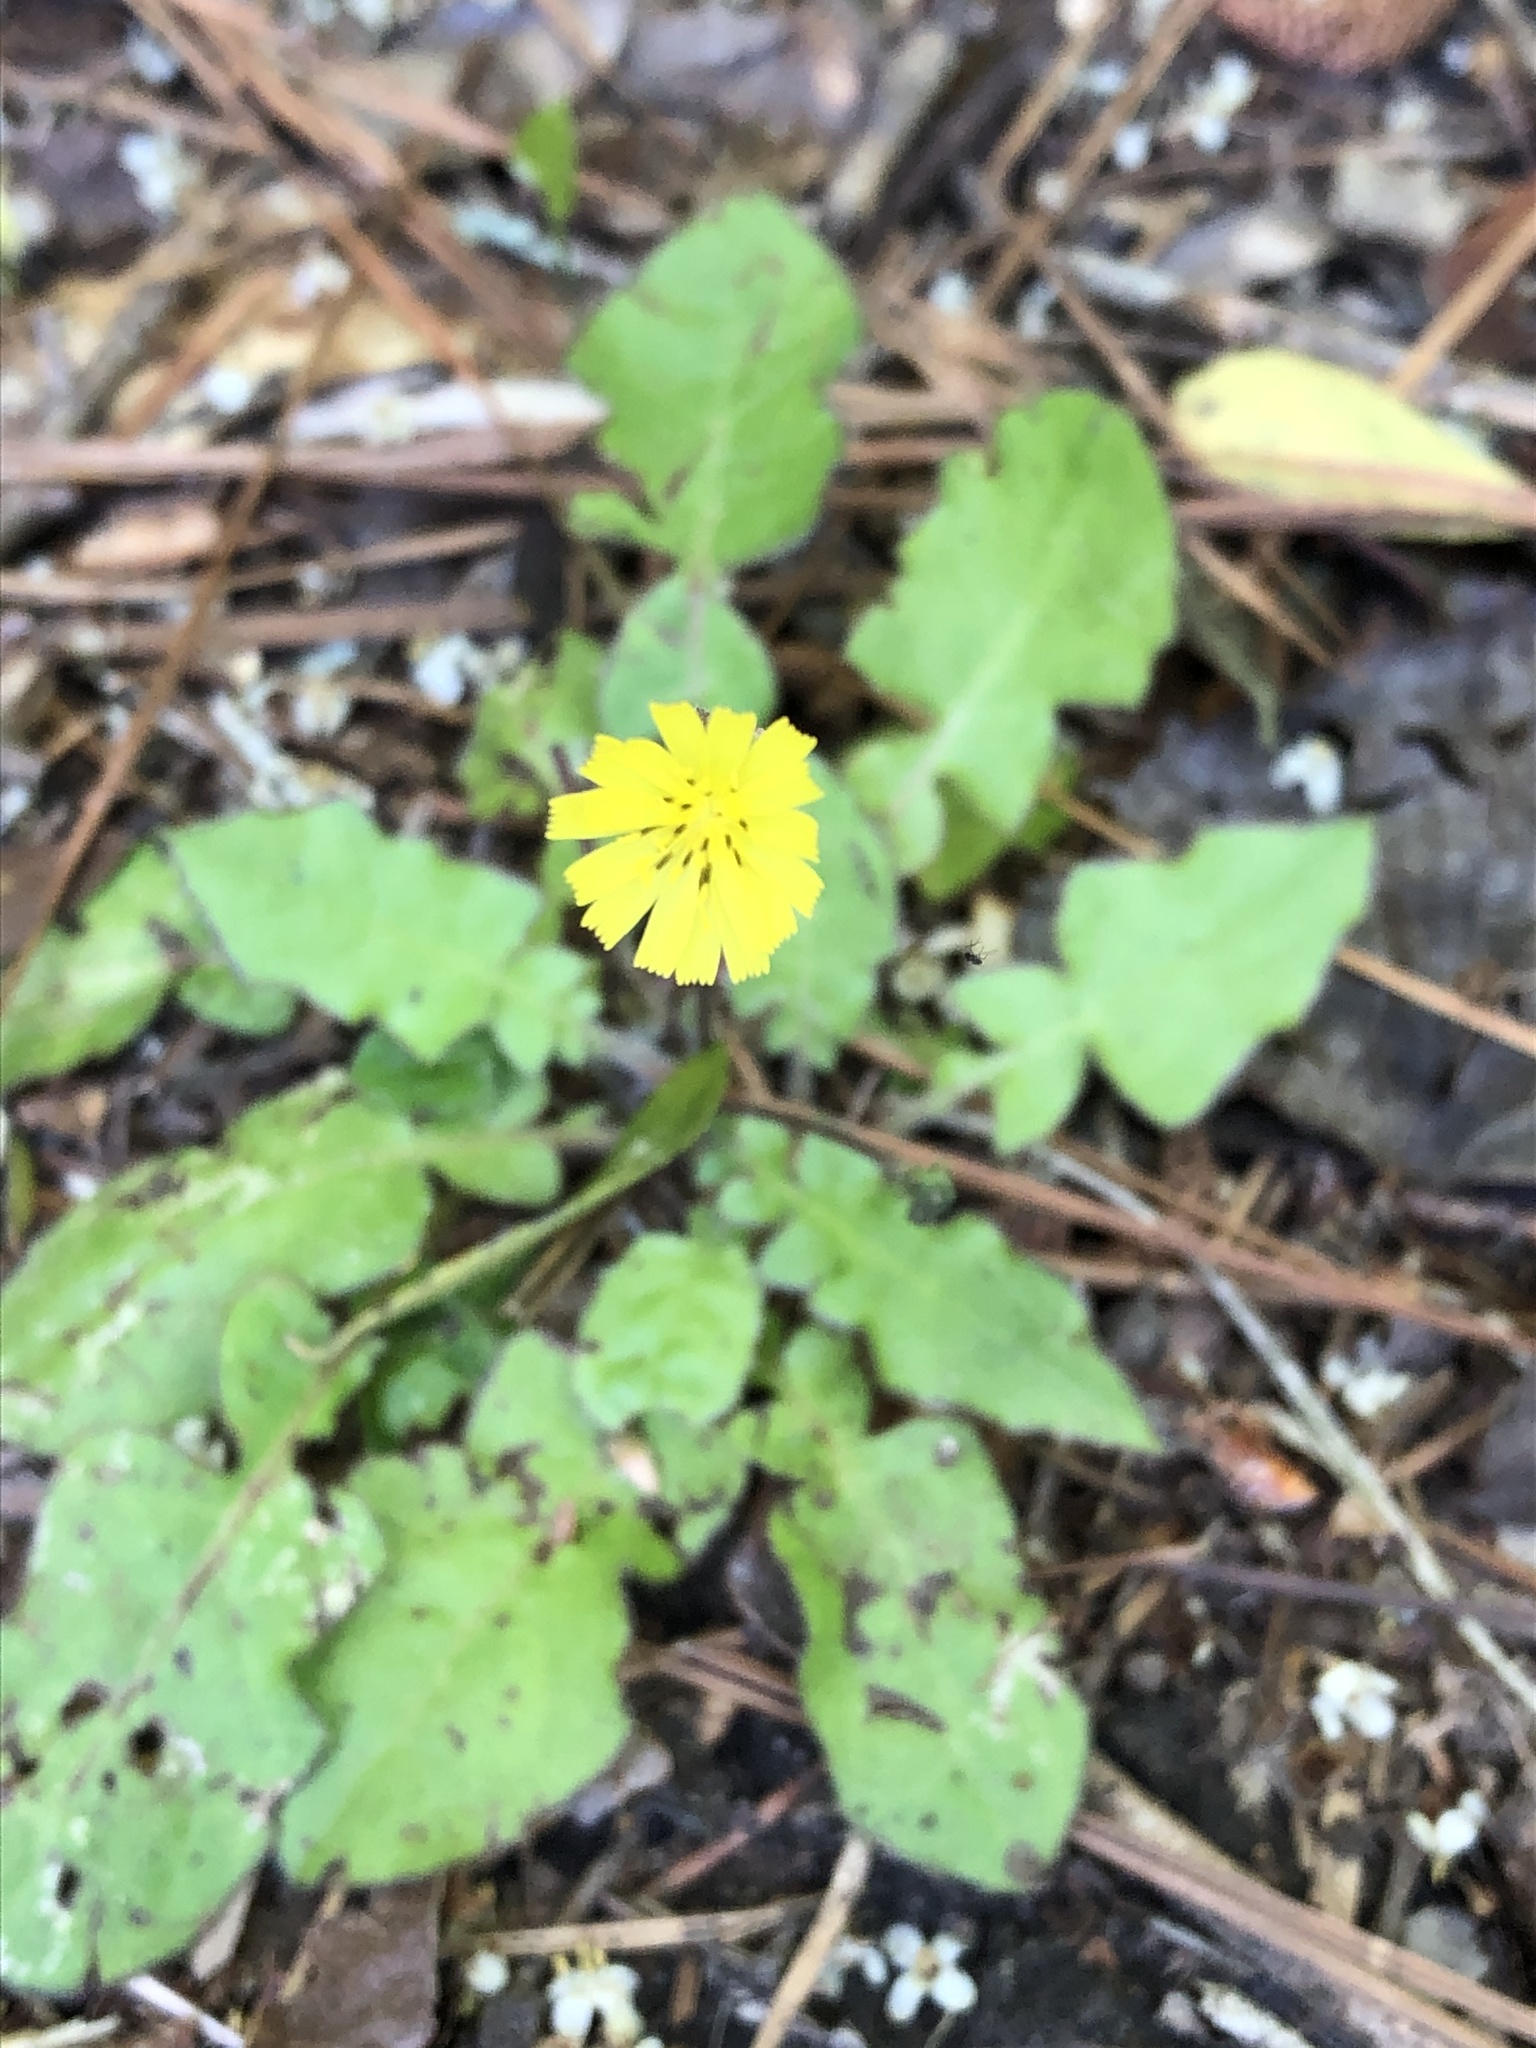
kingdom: Plantae
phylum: Tracheophyta
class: Magnoliopsida
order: Asterales
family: Asteraceae
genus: Youngia
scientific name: Youngia japonica
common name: Oriental false hawksbeard
